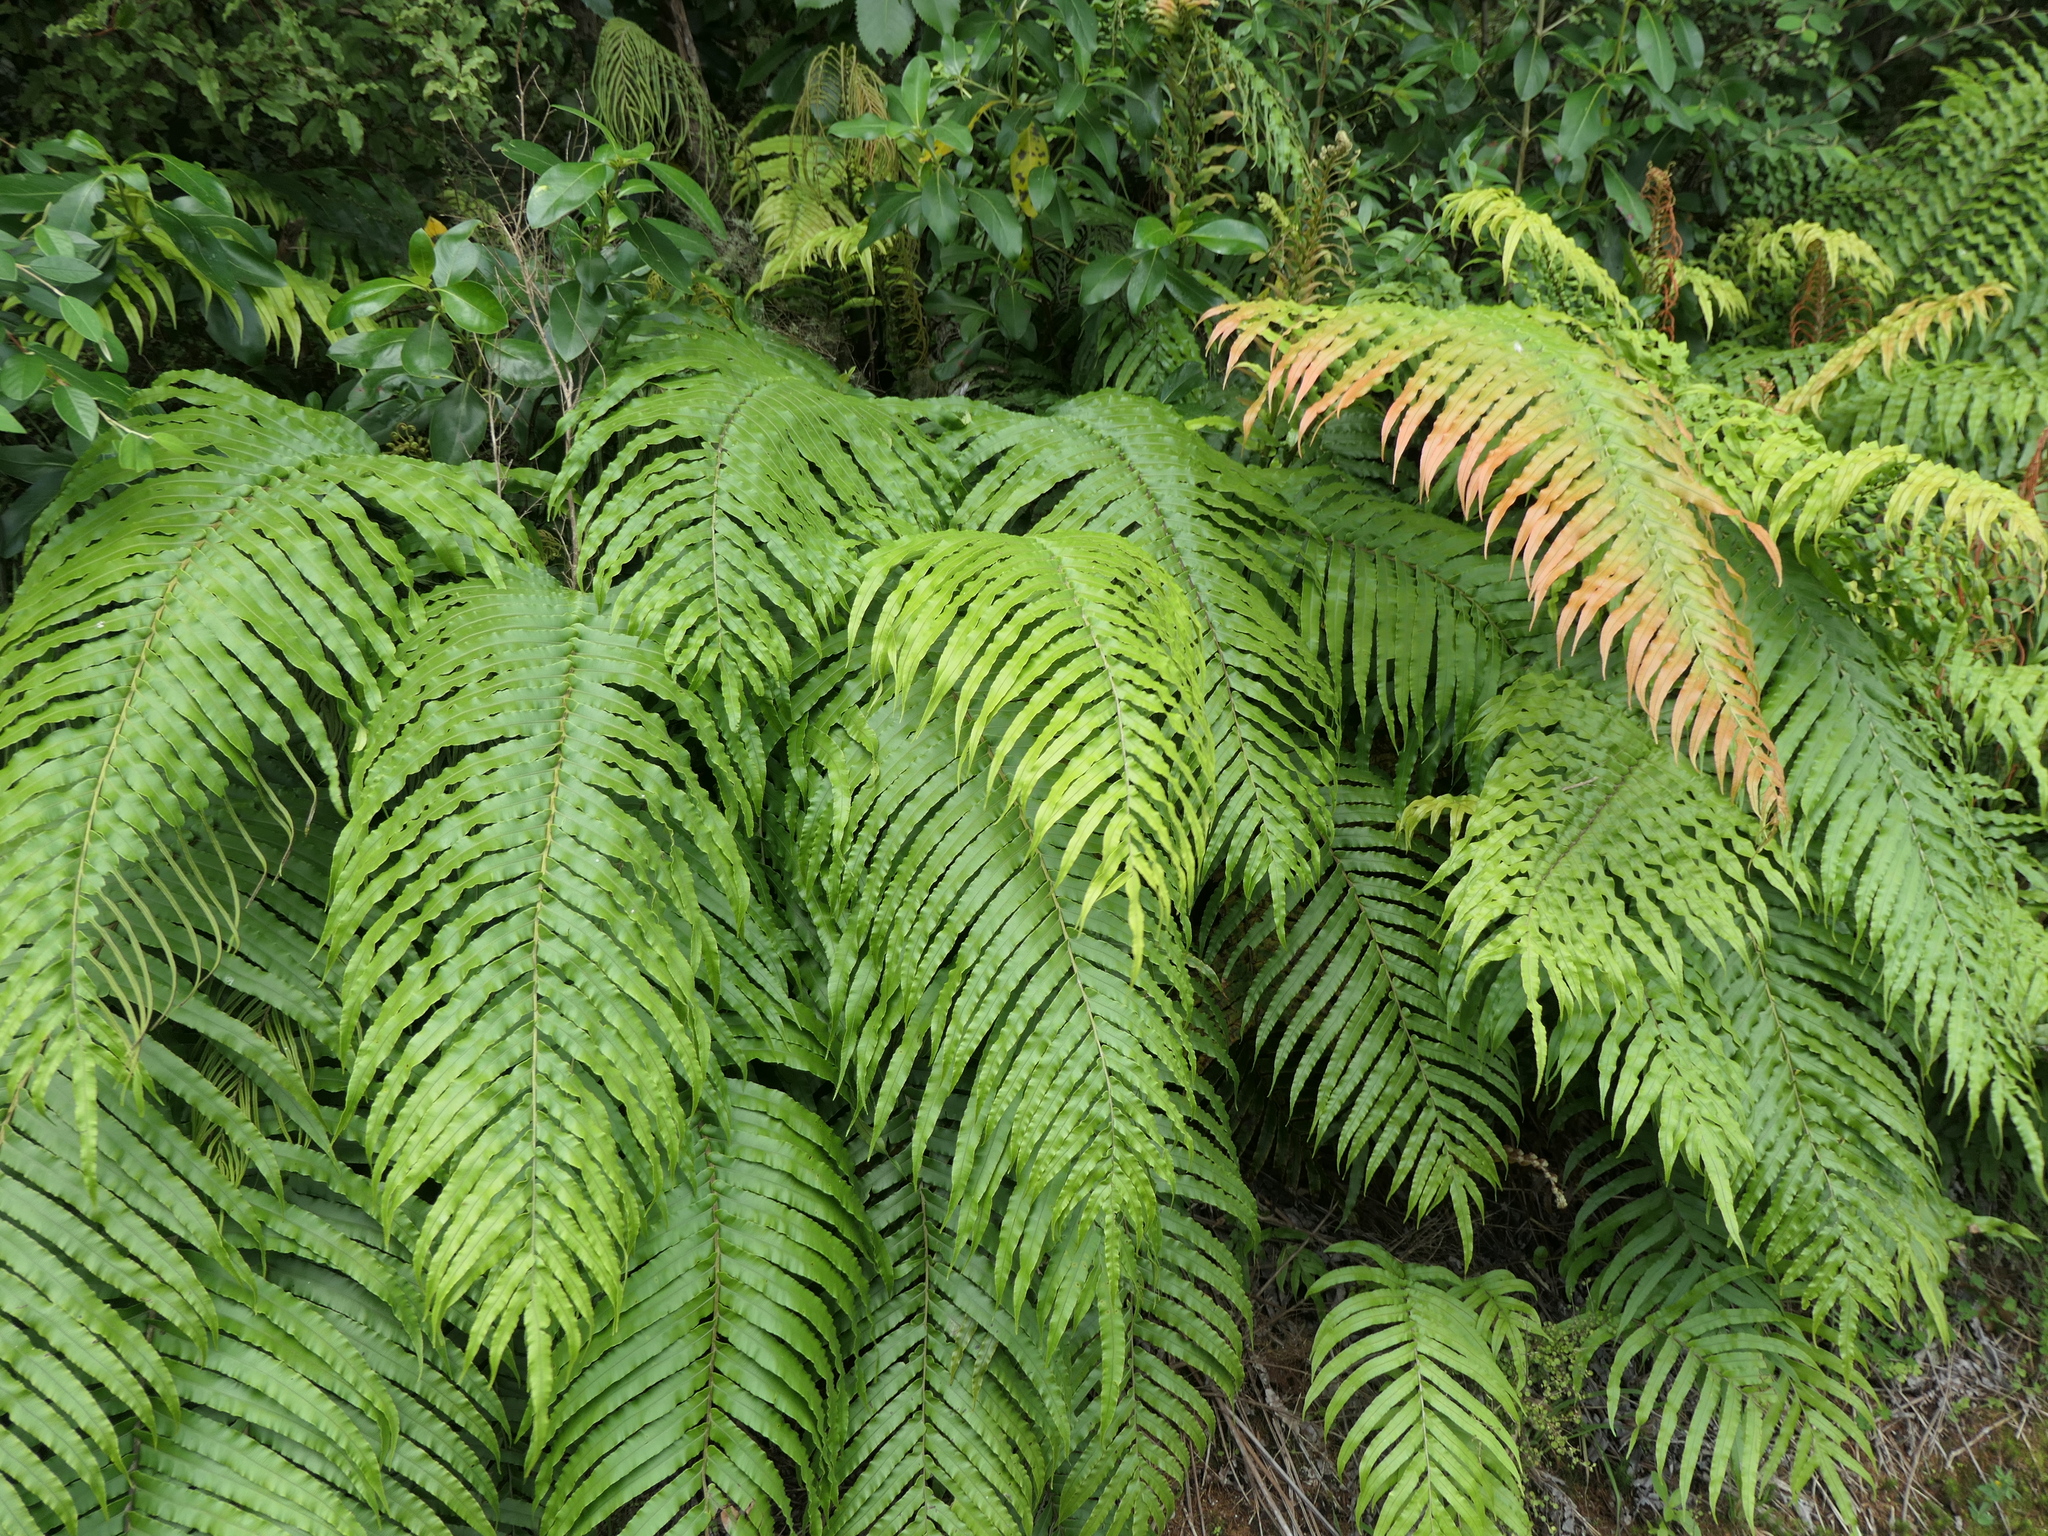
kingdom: Plantae
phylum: Tracheophyta
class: Polypodiopsida
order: Polypodiales
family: Blechnaceae
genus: Parablechnum
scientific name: Parablechnum novae-zelandiae
